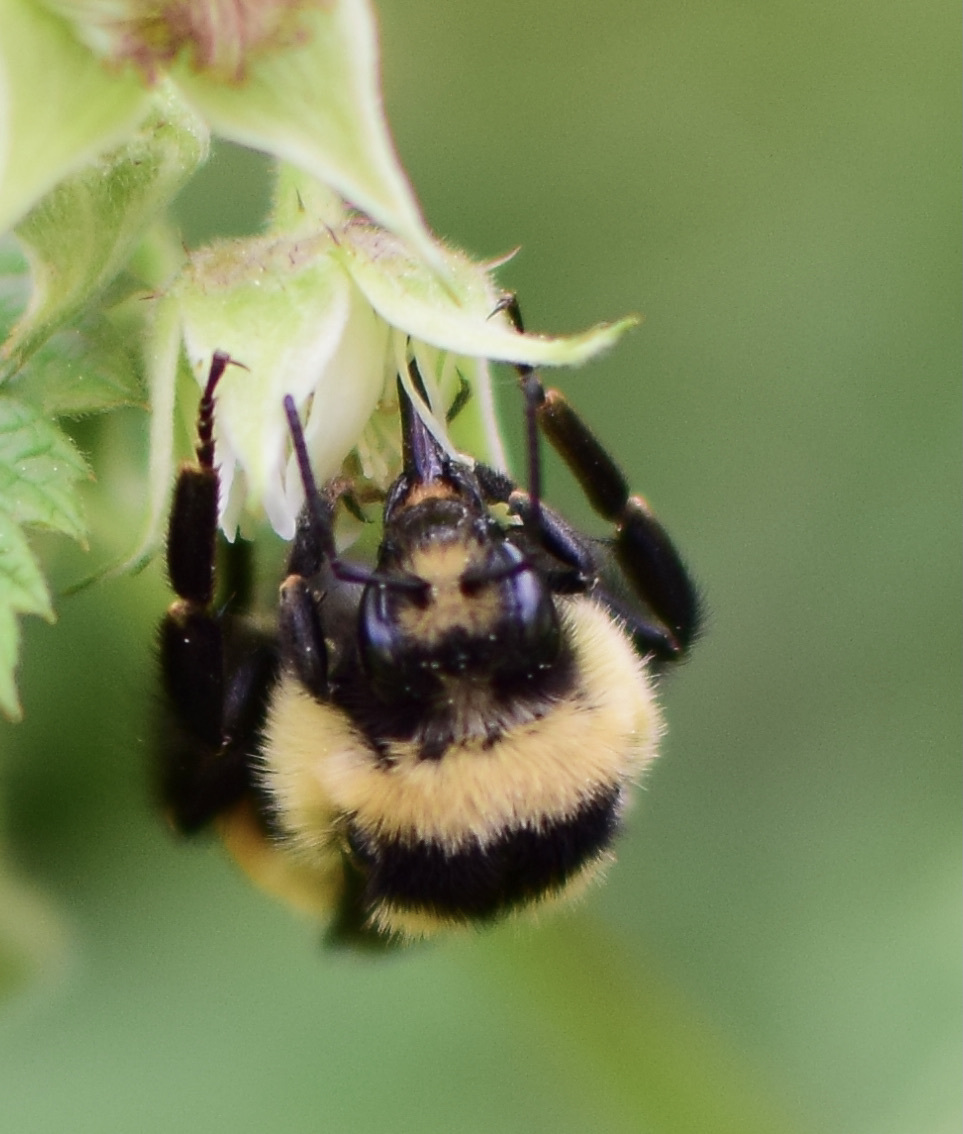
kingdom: Animalia
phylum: Arthropoda
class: Insecta
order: Hymenoptera
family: Apidae
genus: Bombus
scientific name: Bombus ternarius
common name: Tri-colored bumble bee
